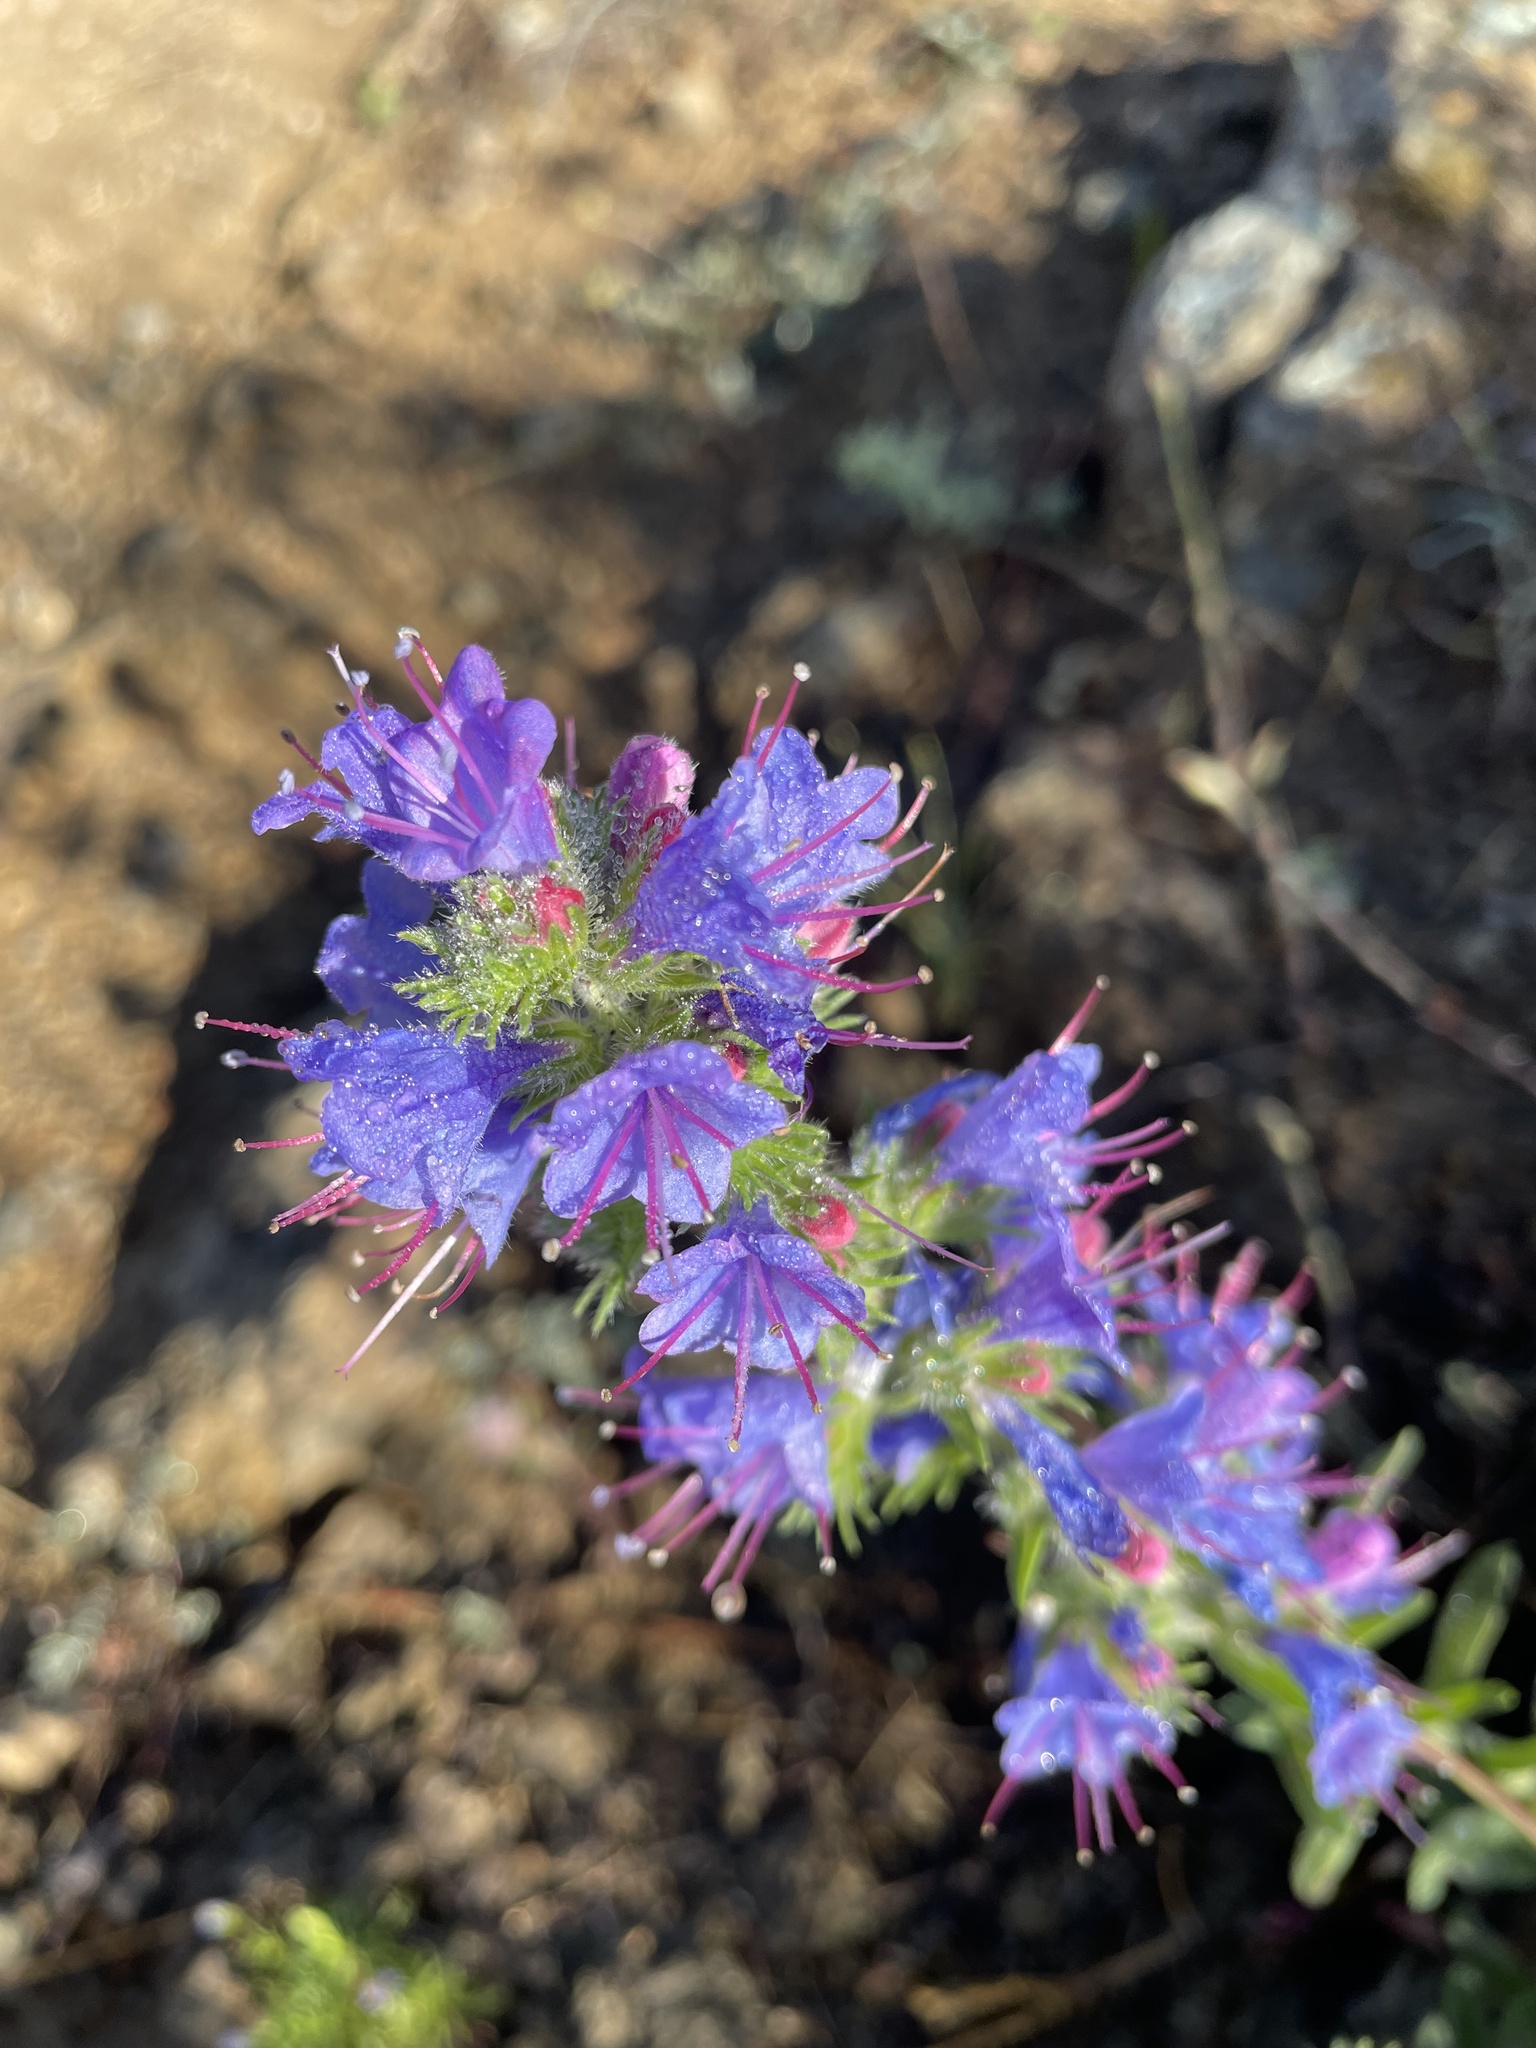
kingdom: Plantae
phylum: Tracheophyta
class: Magnoliopsida
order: Boraginales
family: Boraginaceae
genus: Echium
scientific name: Echium vulgare
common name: Common viper's bugloss
